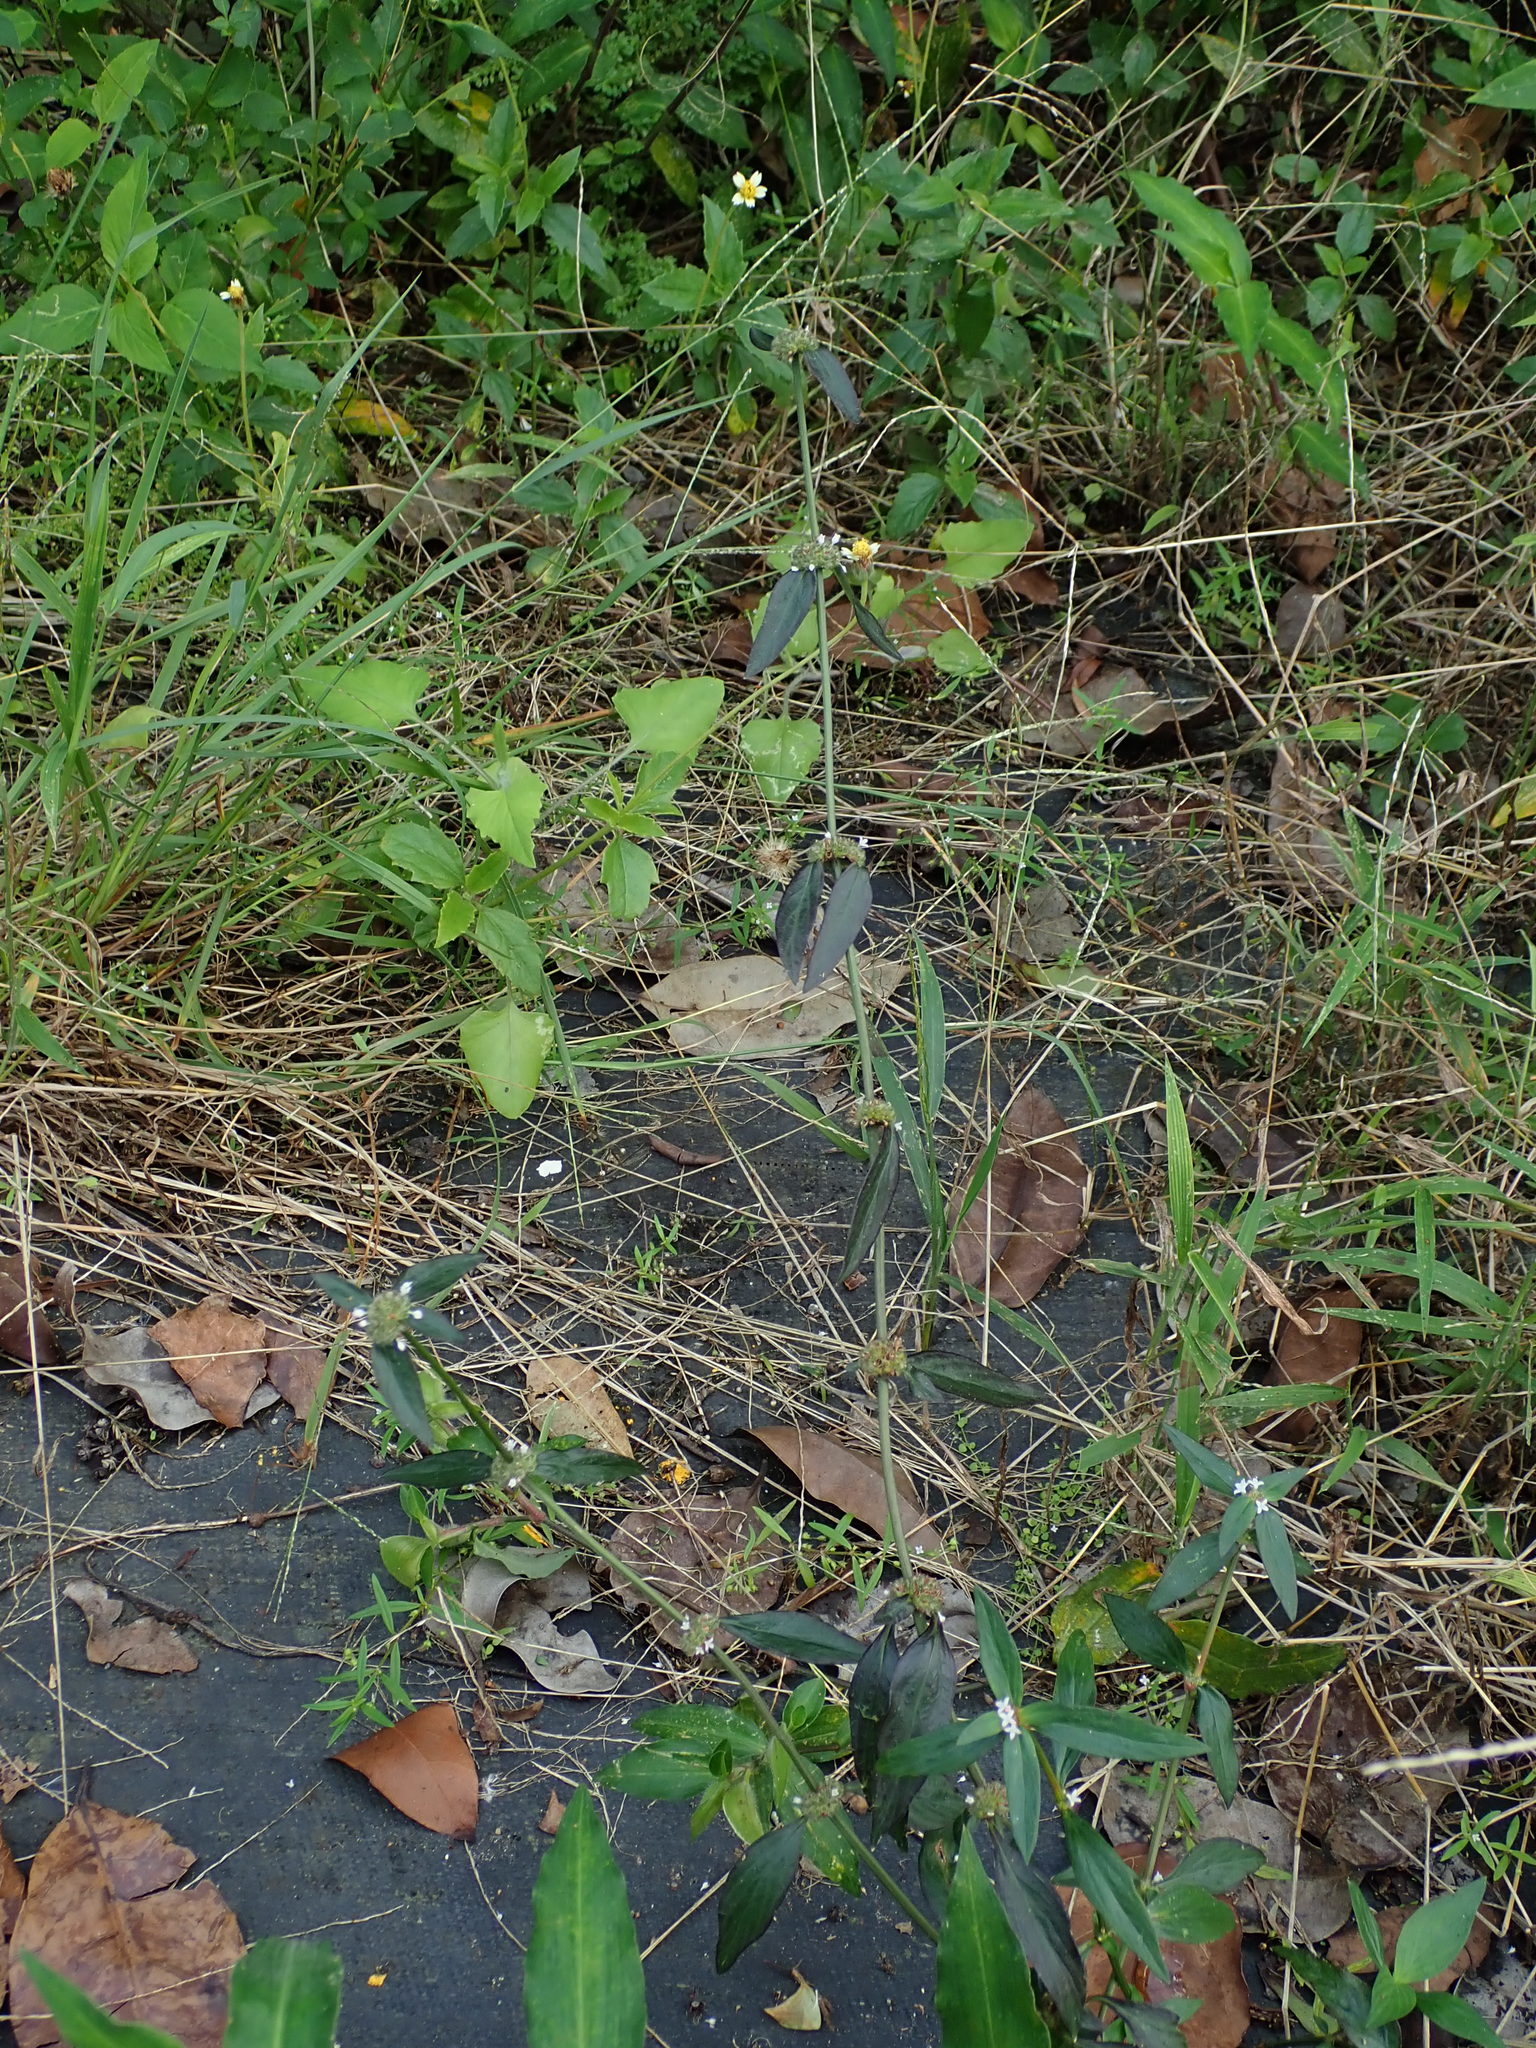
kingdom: Plantae
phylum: Tracheophyta
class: Magnoliopsida
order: Gentianales
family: Rubiaceae
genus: Spermacoce
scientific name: Spermacoce remota
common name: Woodland false buttonweed
